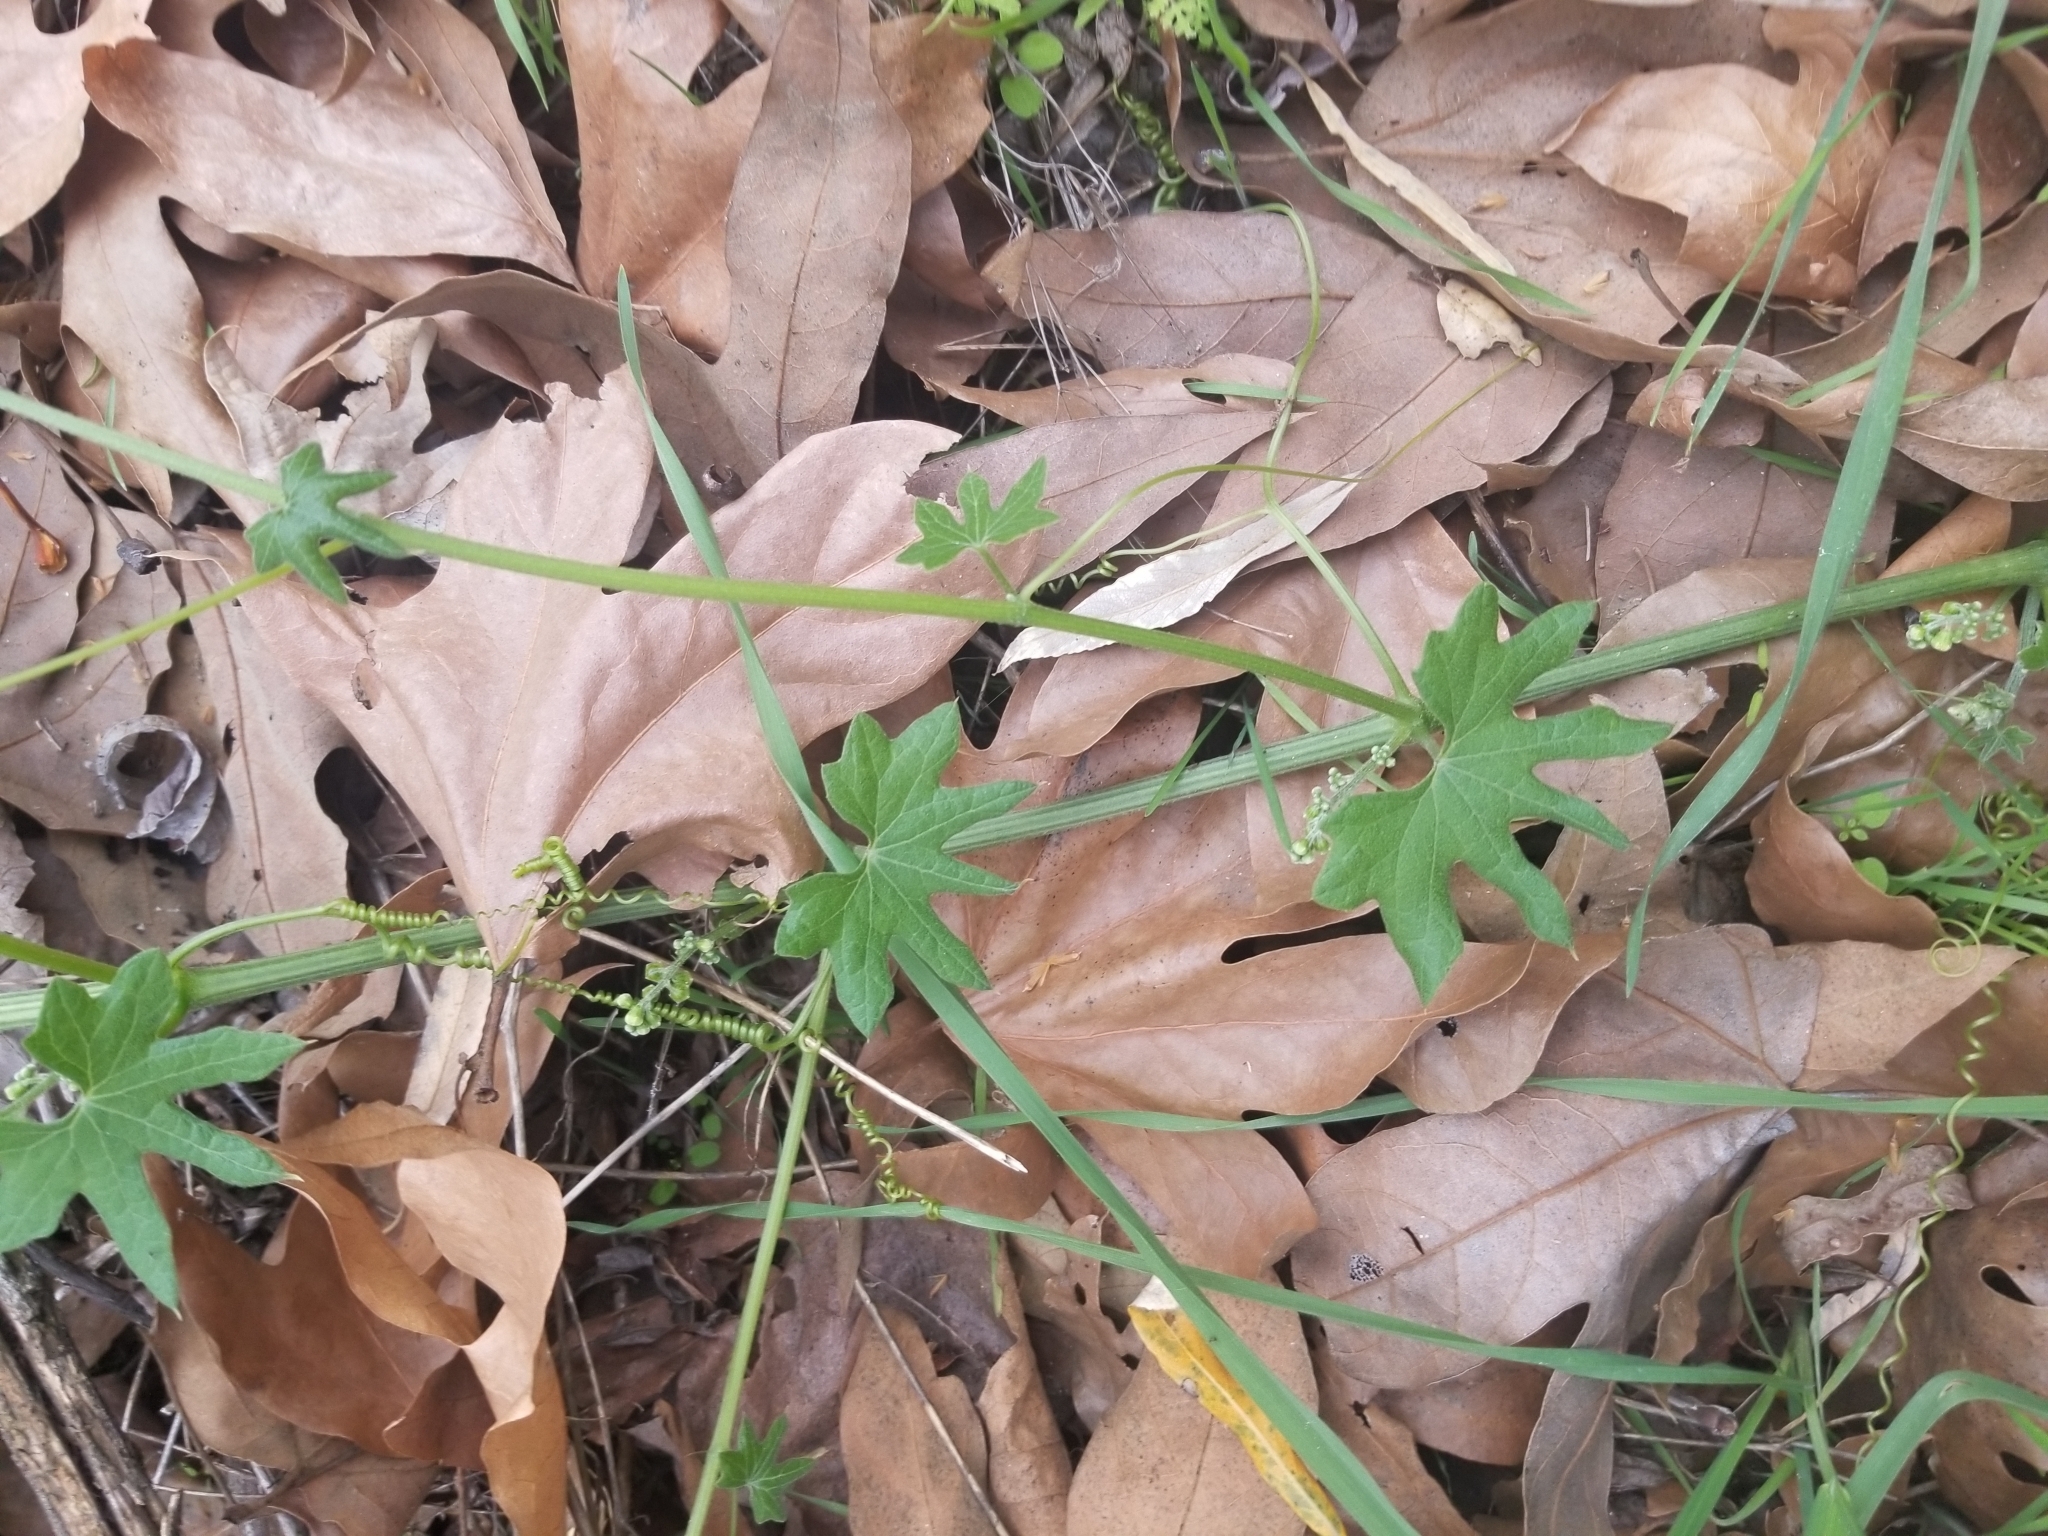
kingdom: Plantae
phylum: Tracheophyta
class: Magnoliopsida
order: Cucurbitales
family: Cucurbitaceae
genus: Marah
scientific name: Marah macrocarpa
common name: Cucamonga manroot
